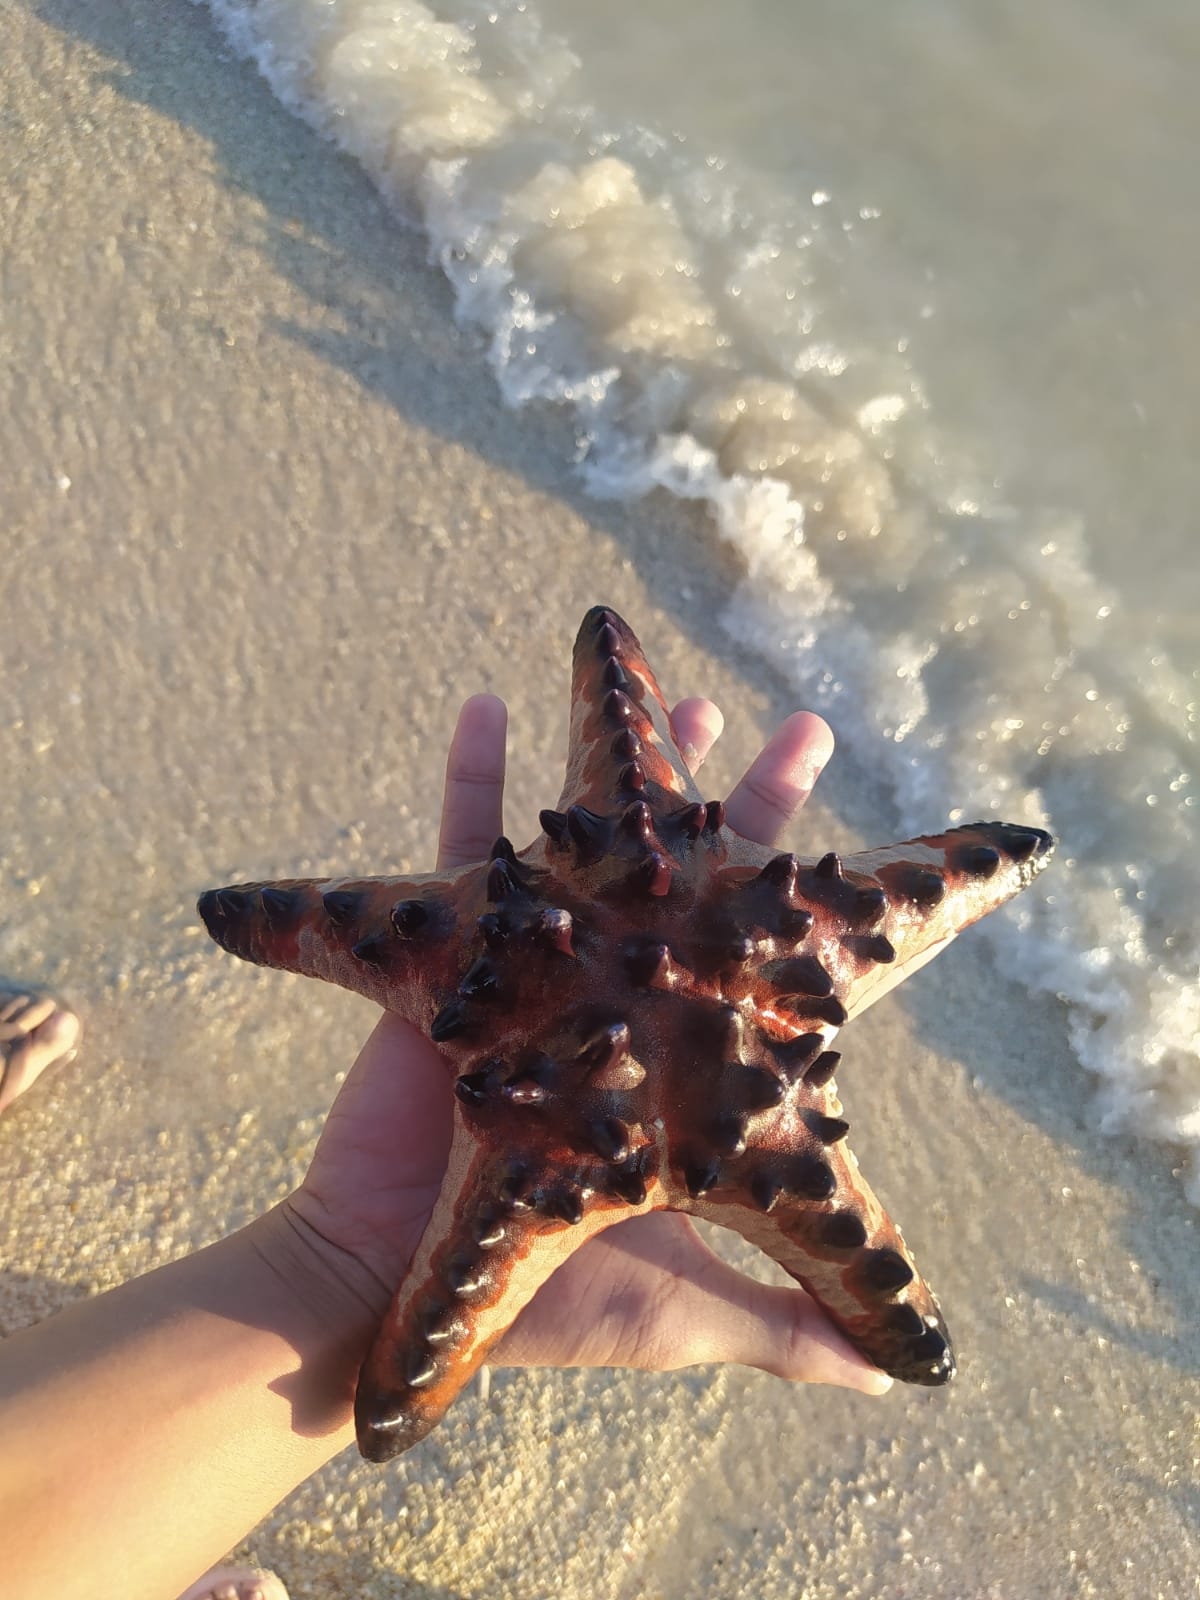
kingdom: Animalia
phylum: Echinodermata
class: Asteroidea
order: Valvatida
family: Oreasteridae
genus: Protoreaster
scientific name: Protoreaster nodosus
